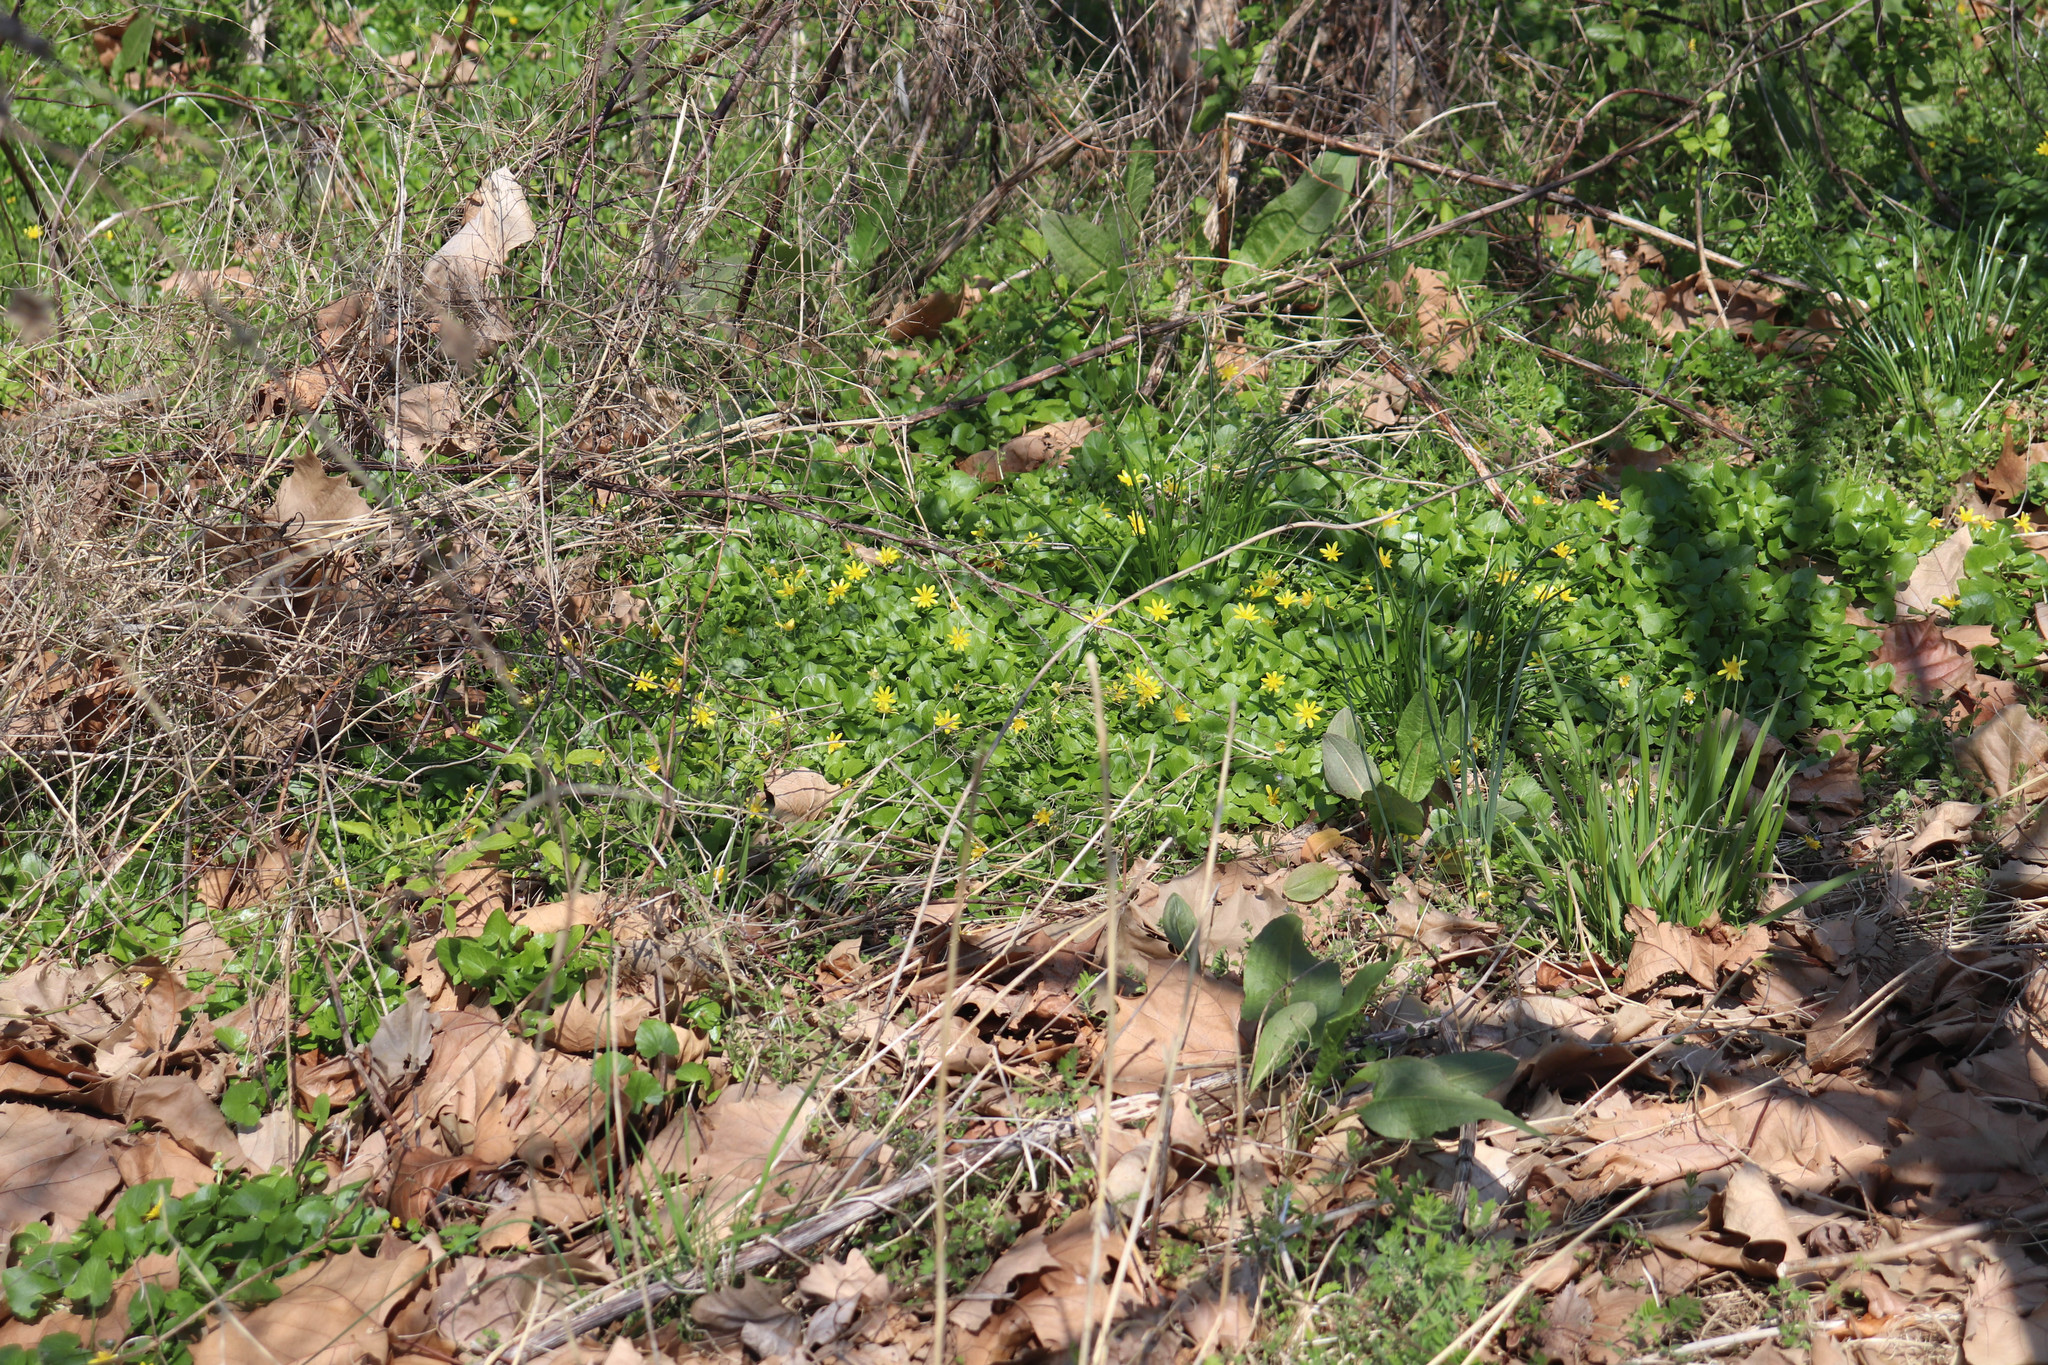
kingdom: Plantae
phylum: Tracheophyta
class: Magnoliopsida
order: Ranunculales
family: Ranunculaceae
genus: Ficaria
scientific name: Ficaria verna
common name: Lesser celandine
